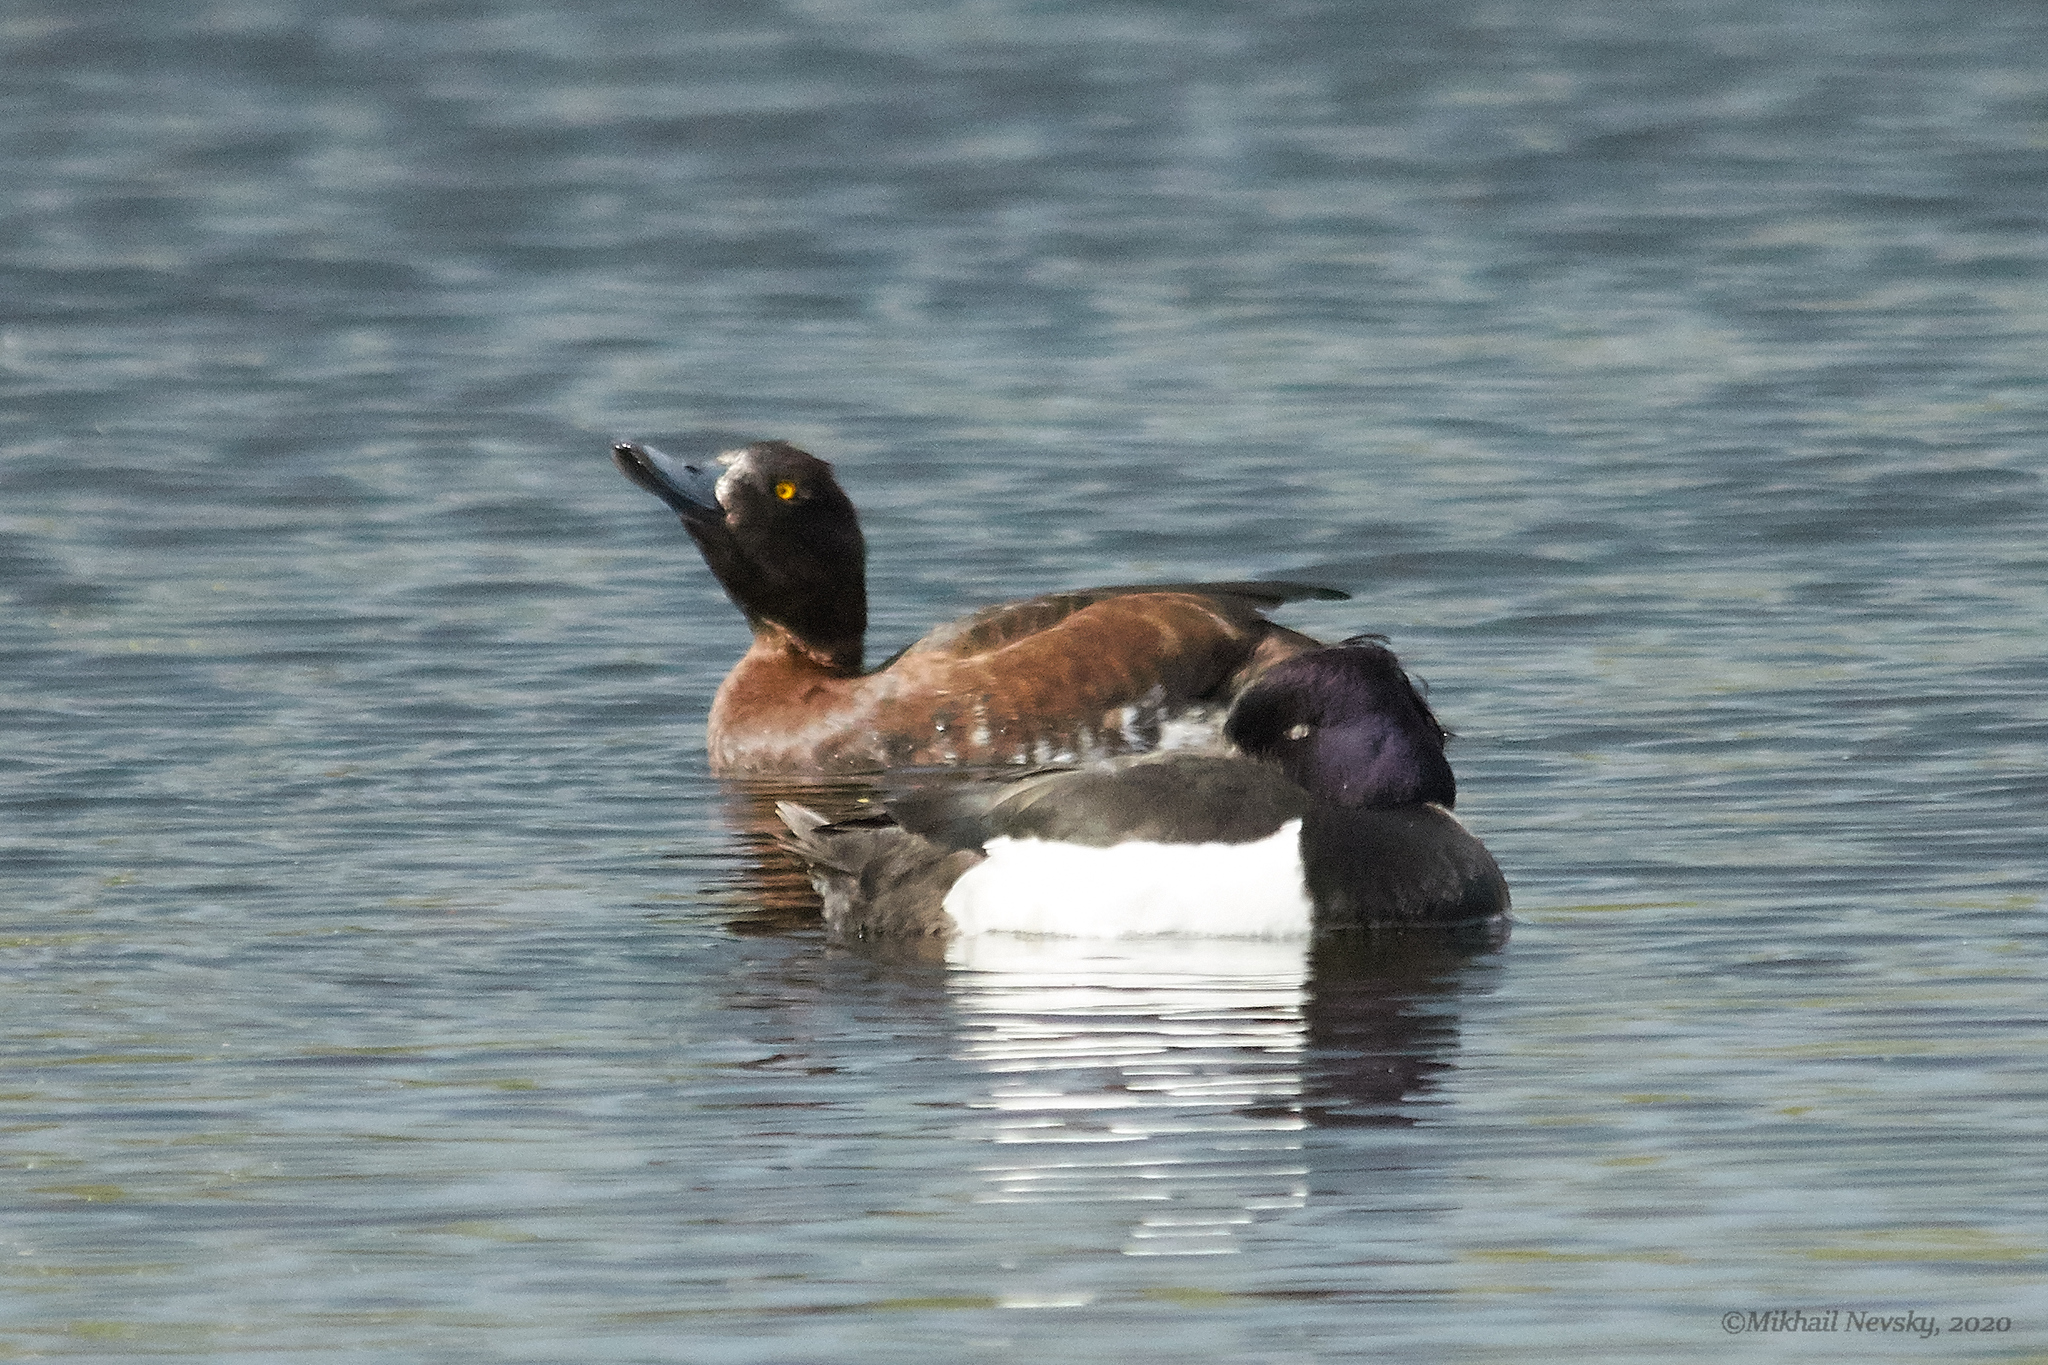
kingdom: Animalia
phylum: Chordata
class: Aves
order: Anseriformes
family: Anatidae
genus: Aythya
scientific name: Aythya fuligula
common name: Tufted duck
